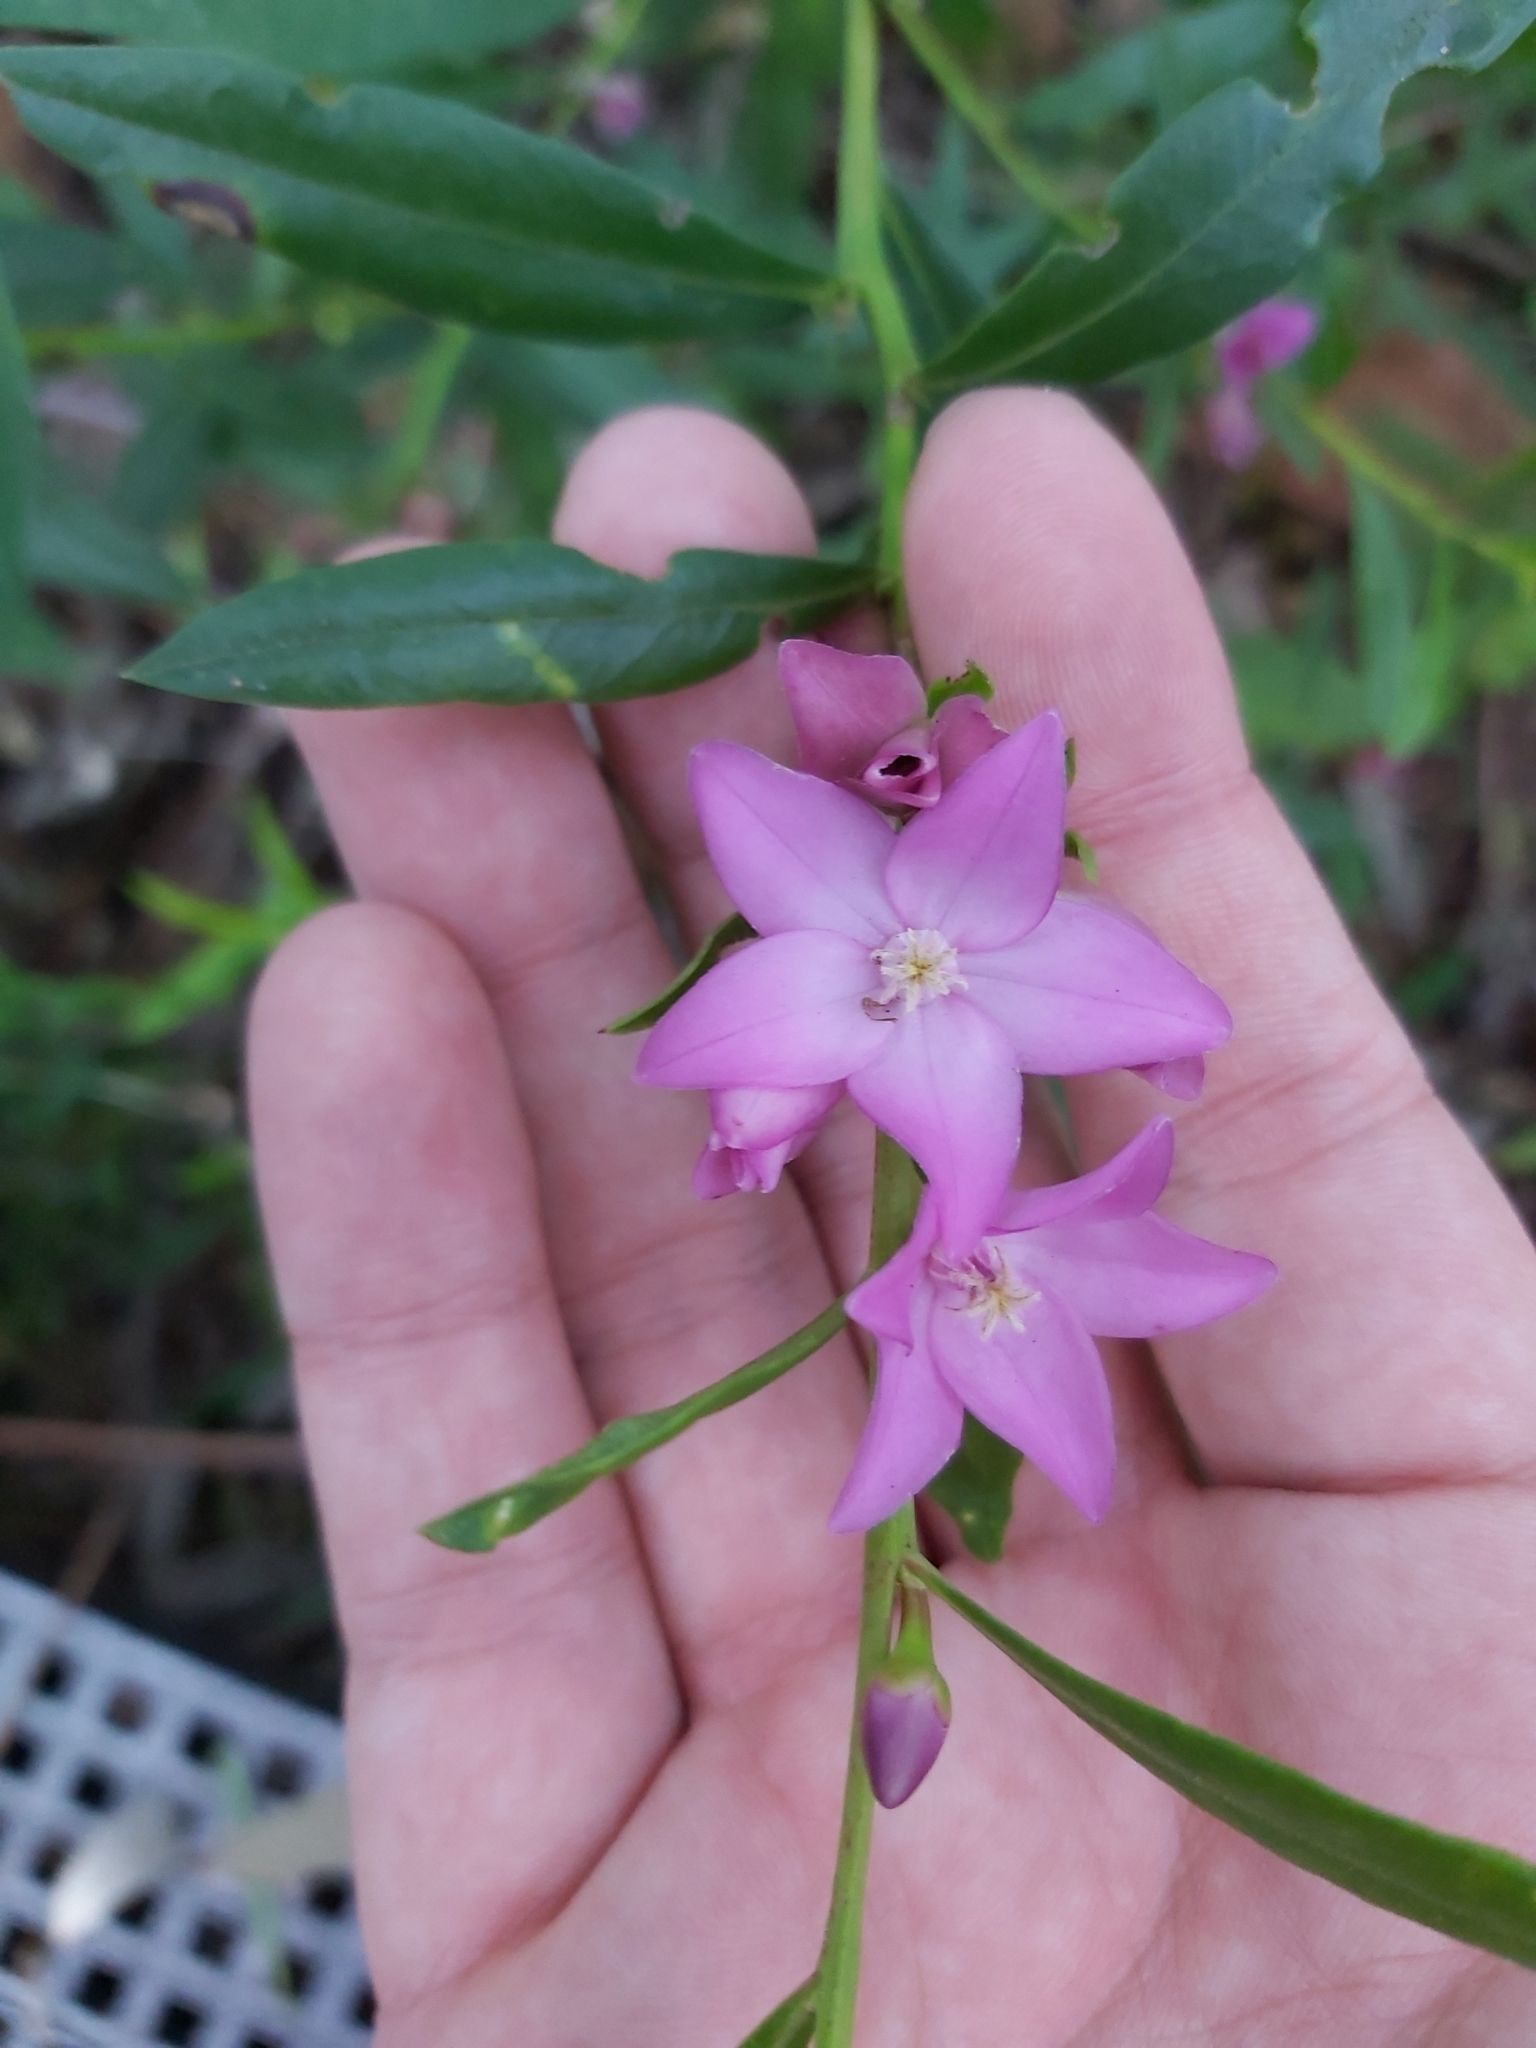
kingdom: Plantae
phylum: Tracheophyta
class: Magnoliopsida
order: Sapindales
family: Rutaceae
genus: Crowea
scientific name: Crowea saligna
